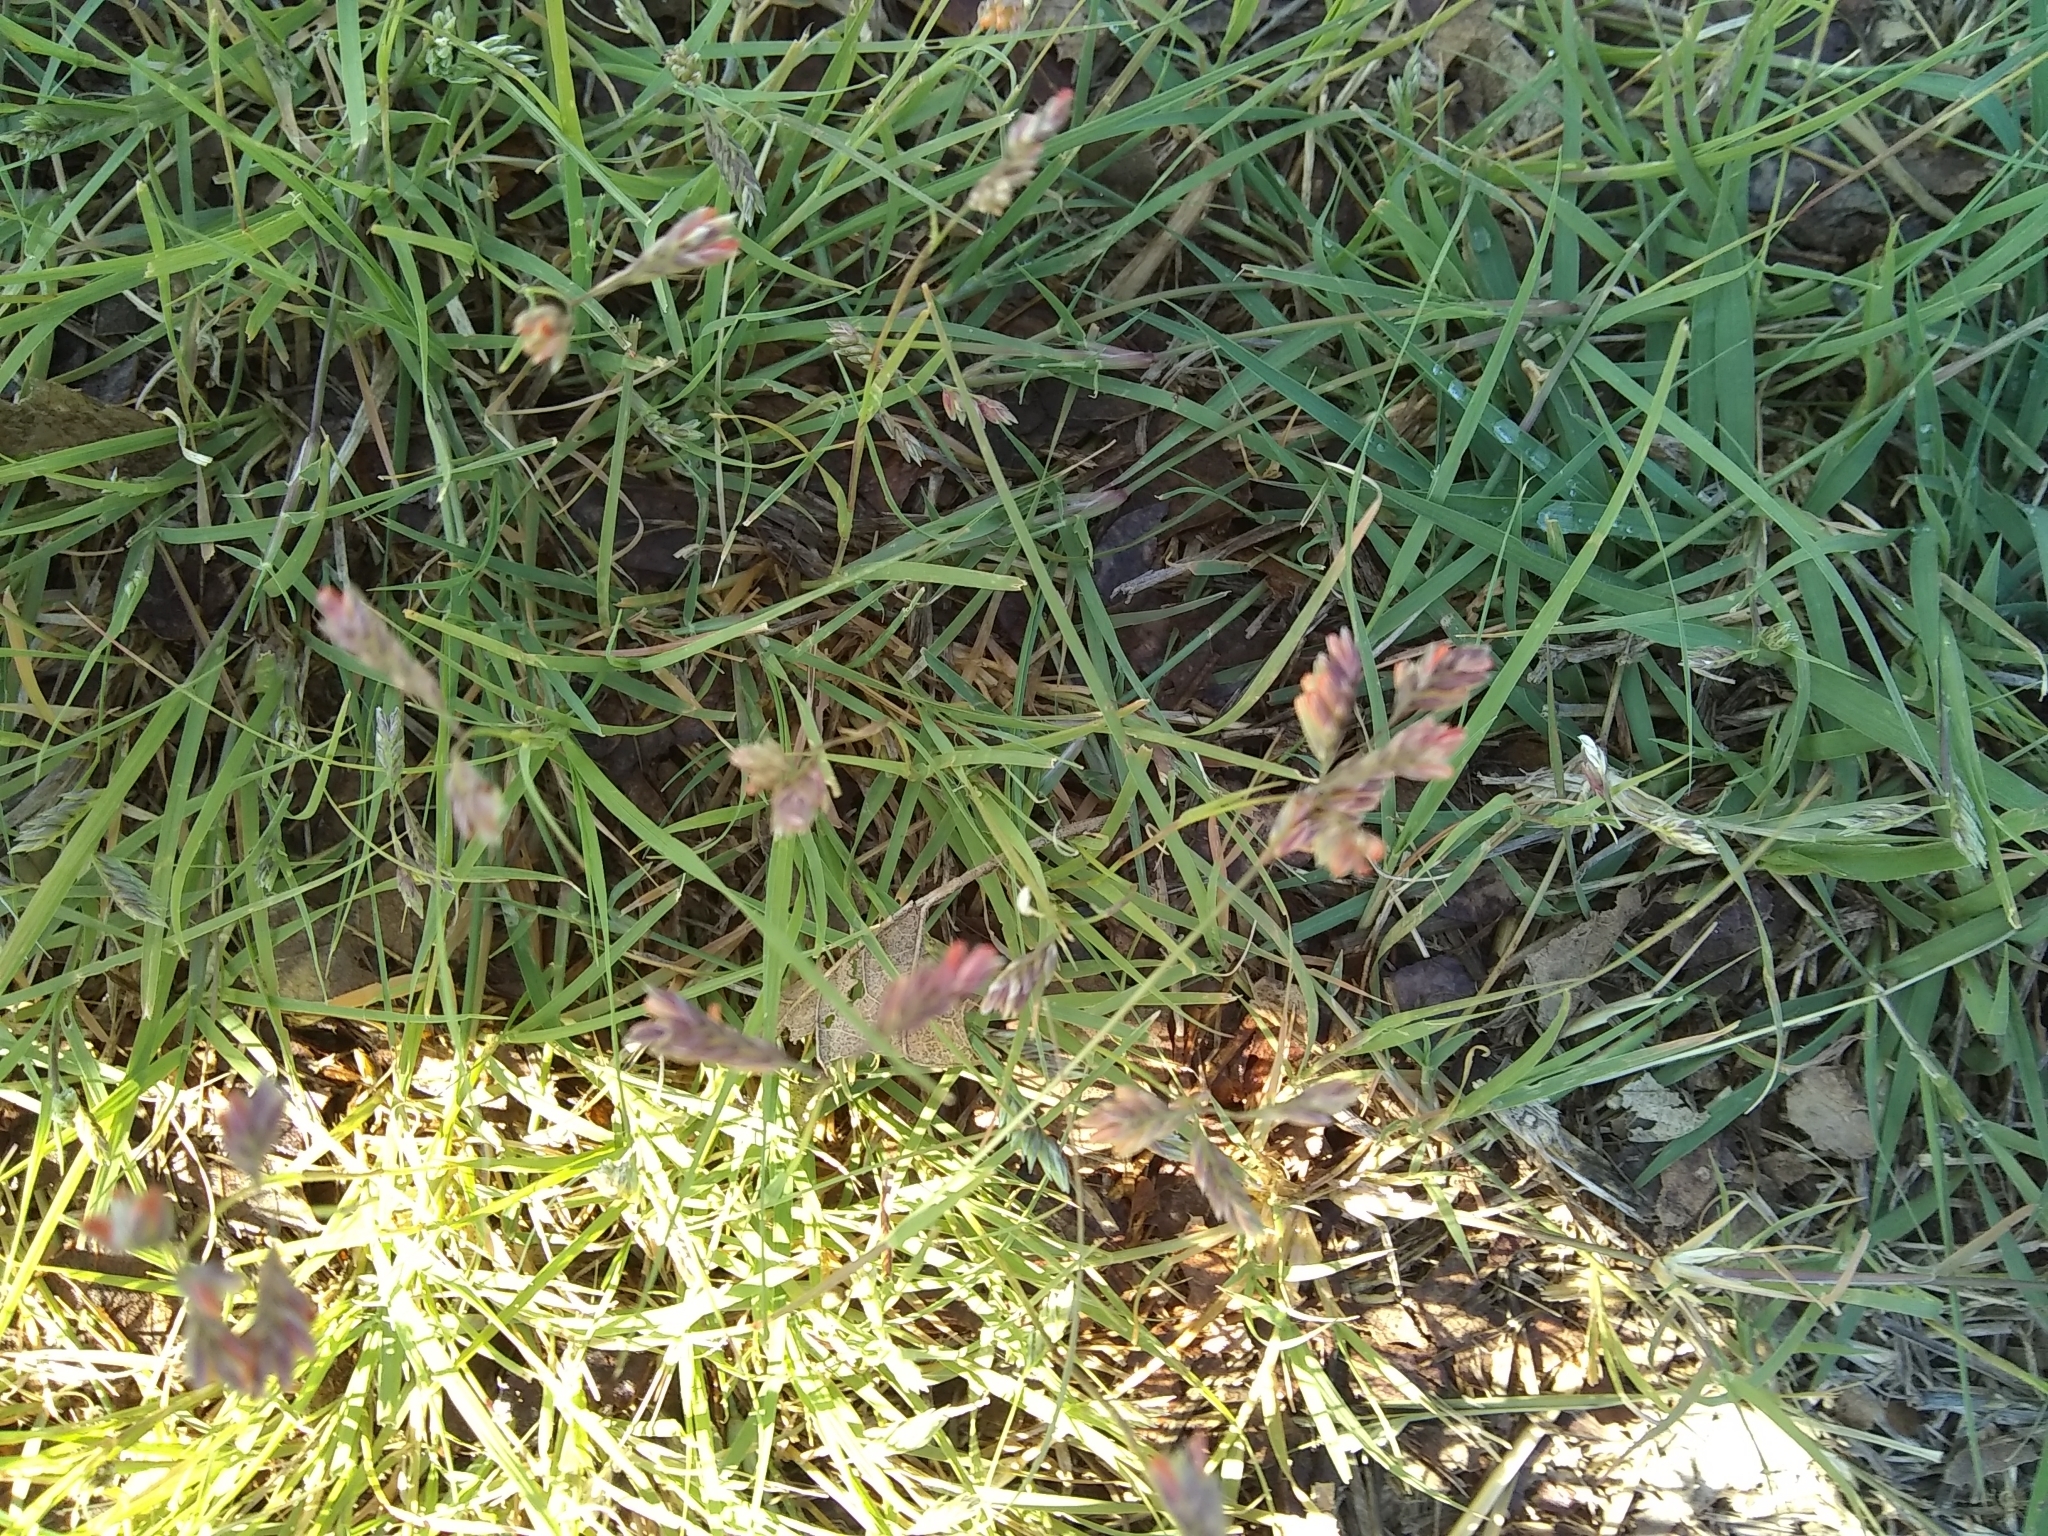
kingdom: Plantae
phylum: Tracheophyta
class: Liliopsida
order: Poales
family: Poaceae
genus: Bouteloua
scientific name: Bouteloua dactyloides
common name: Buffalo grass
